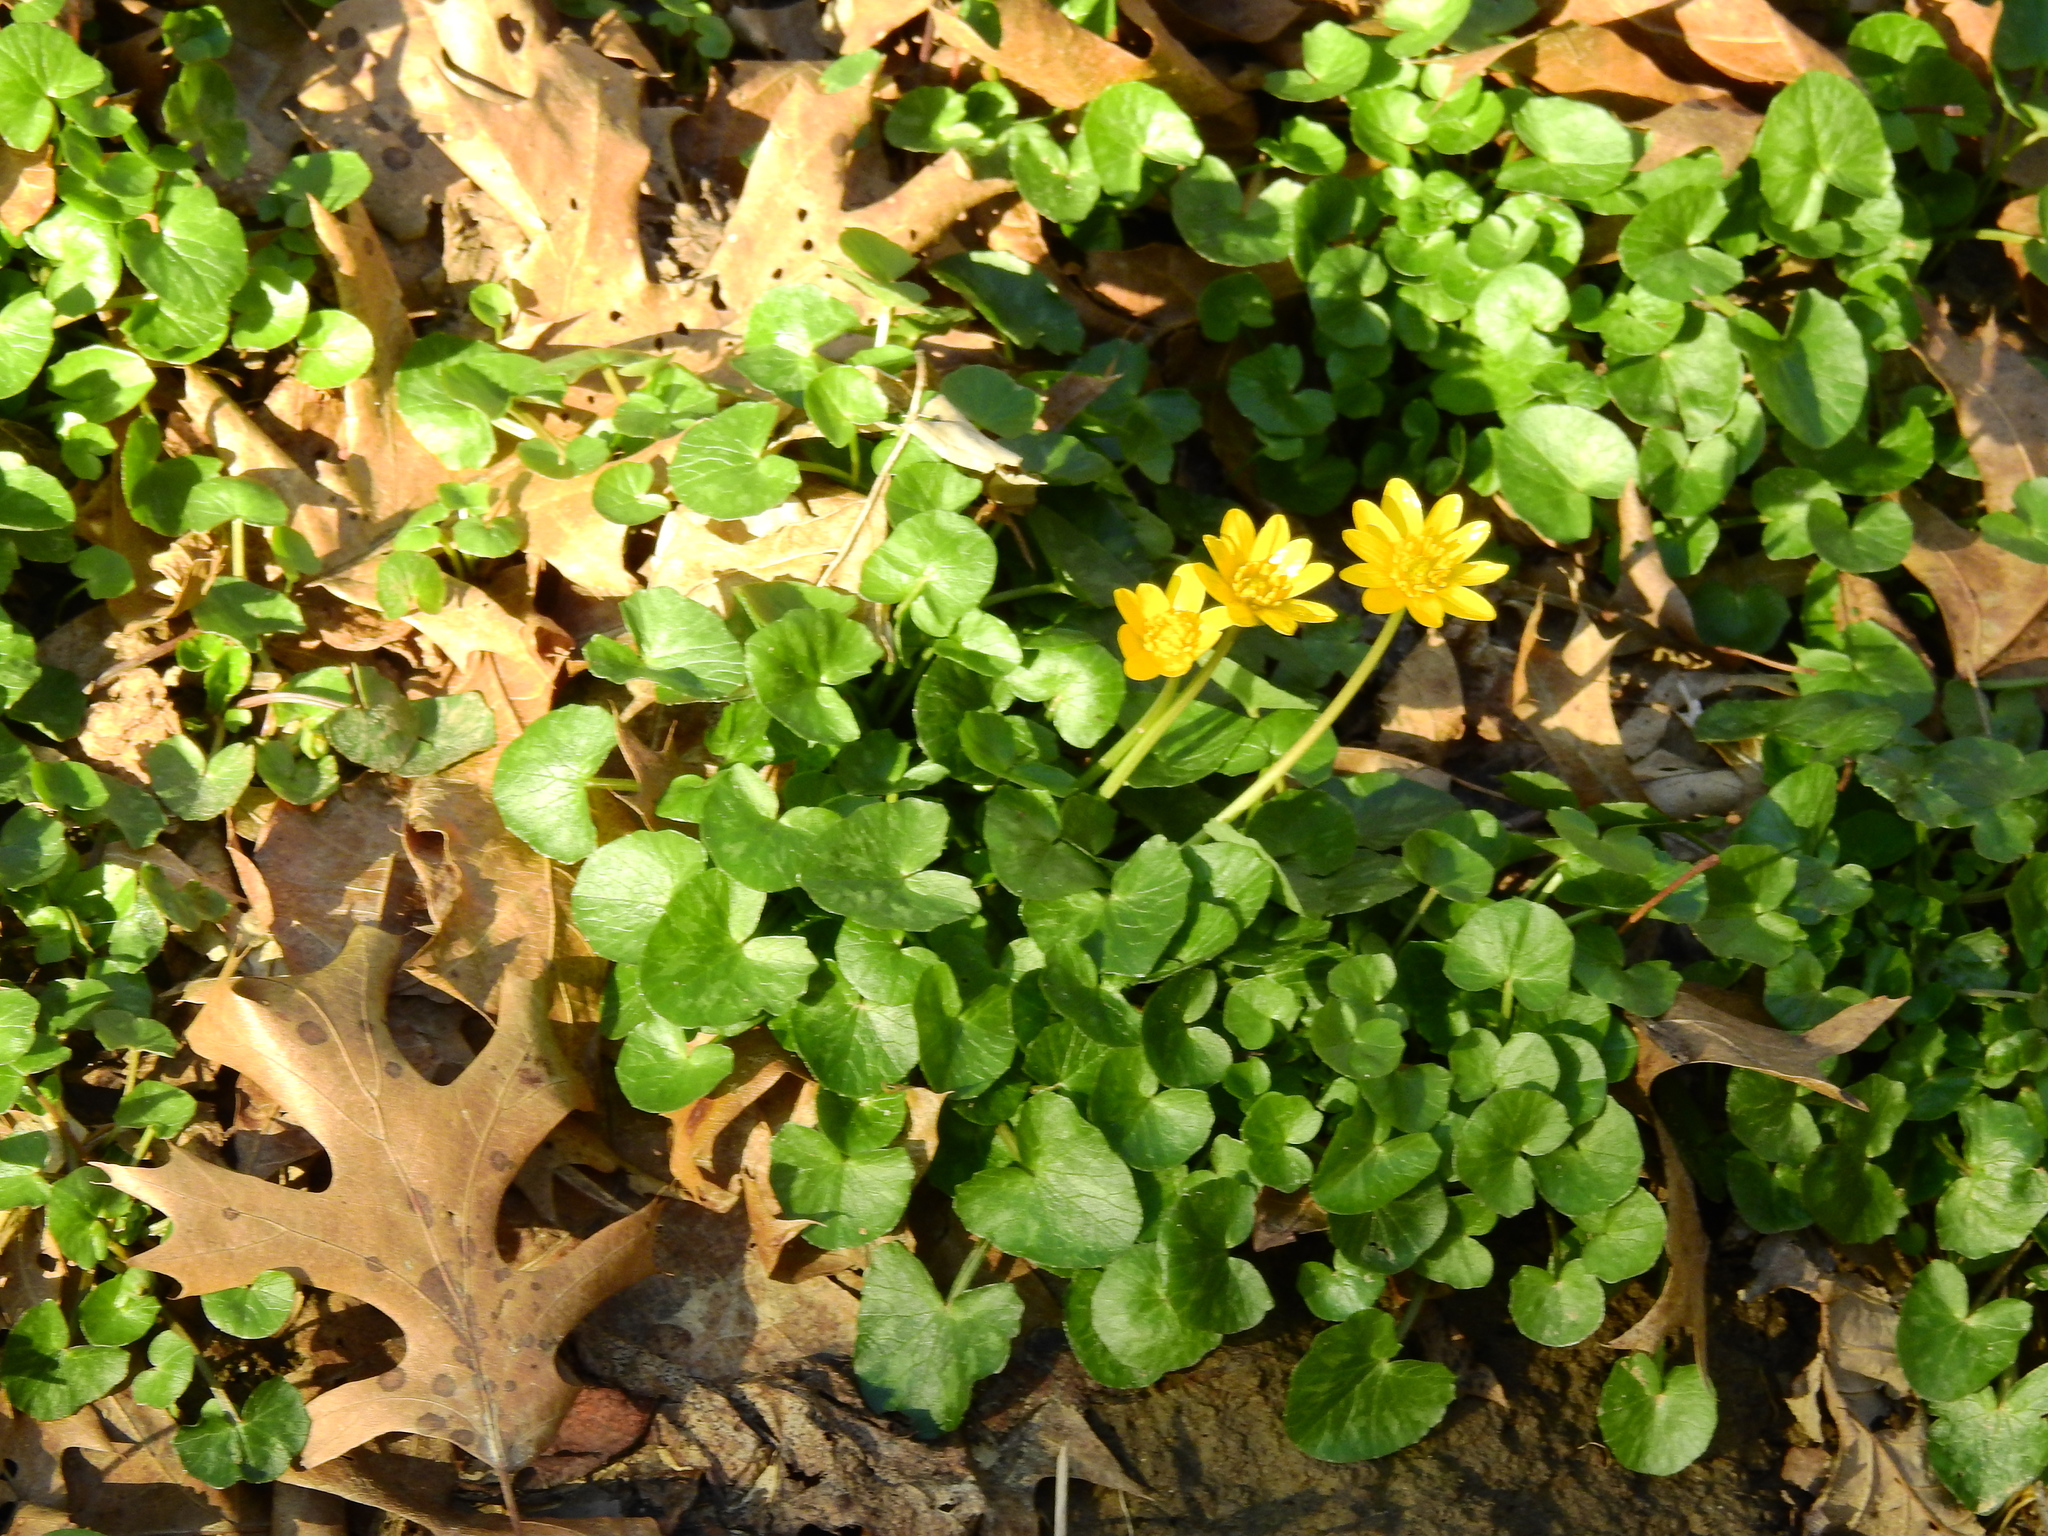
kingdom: Plantae
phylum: Tracheophyta
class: Magnoliopsida
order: Ranunculales
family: Ranunculaceae
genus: Ficaria
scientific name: Ficaria verna
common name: Lesser celandine
